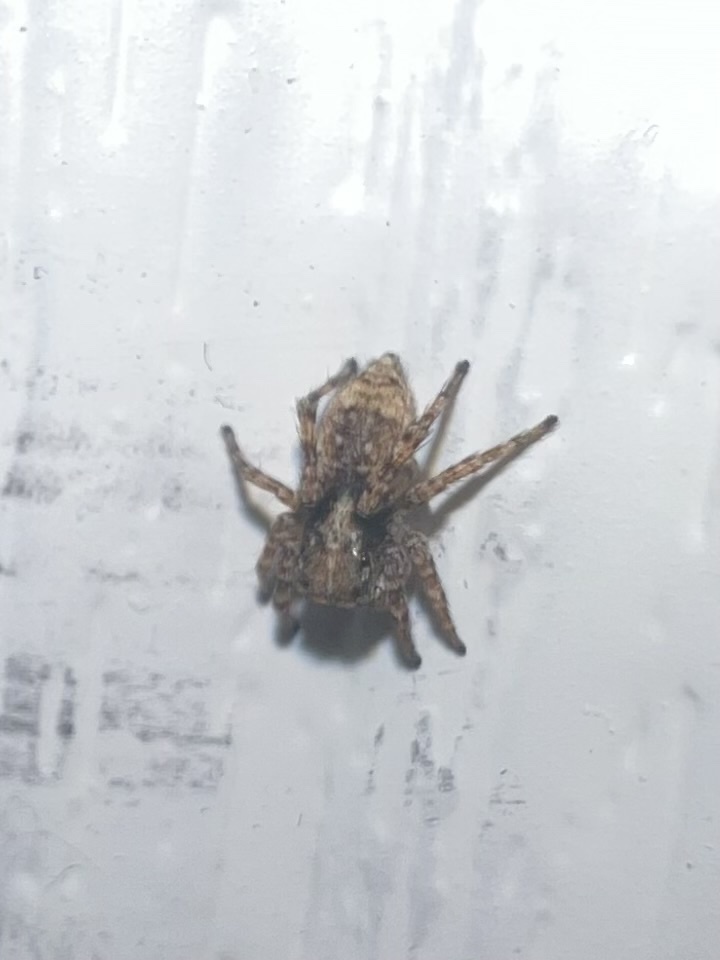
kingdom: Animalia
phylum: Arthropoda
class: Arachnida
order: Araneae
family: Salticidae
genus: Attulus
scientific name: Attulus fasciger
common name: Asiatic wall jumping spider
